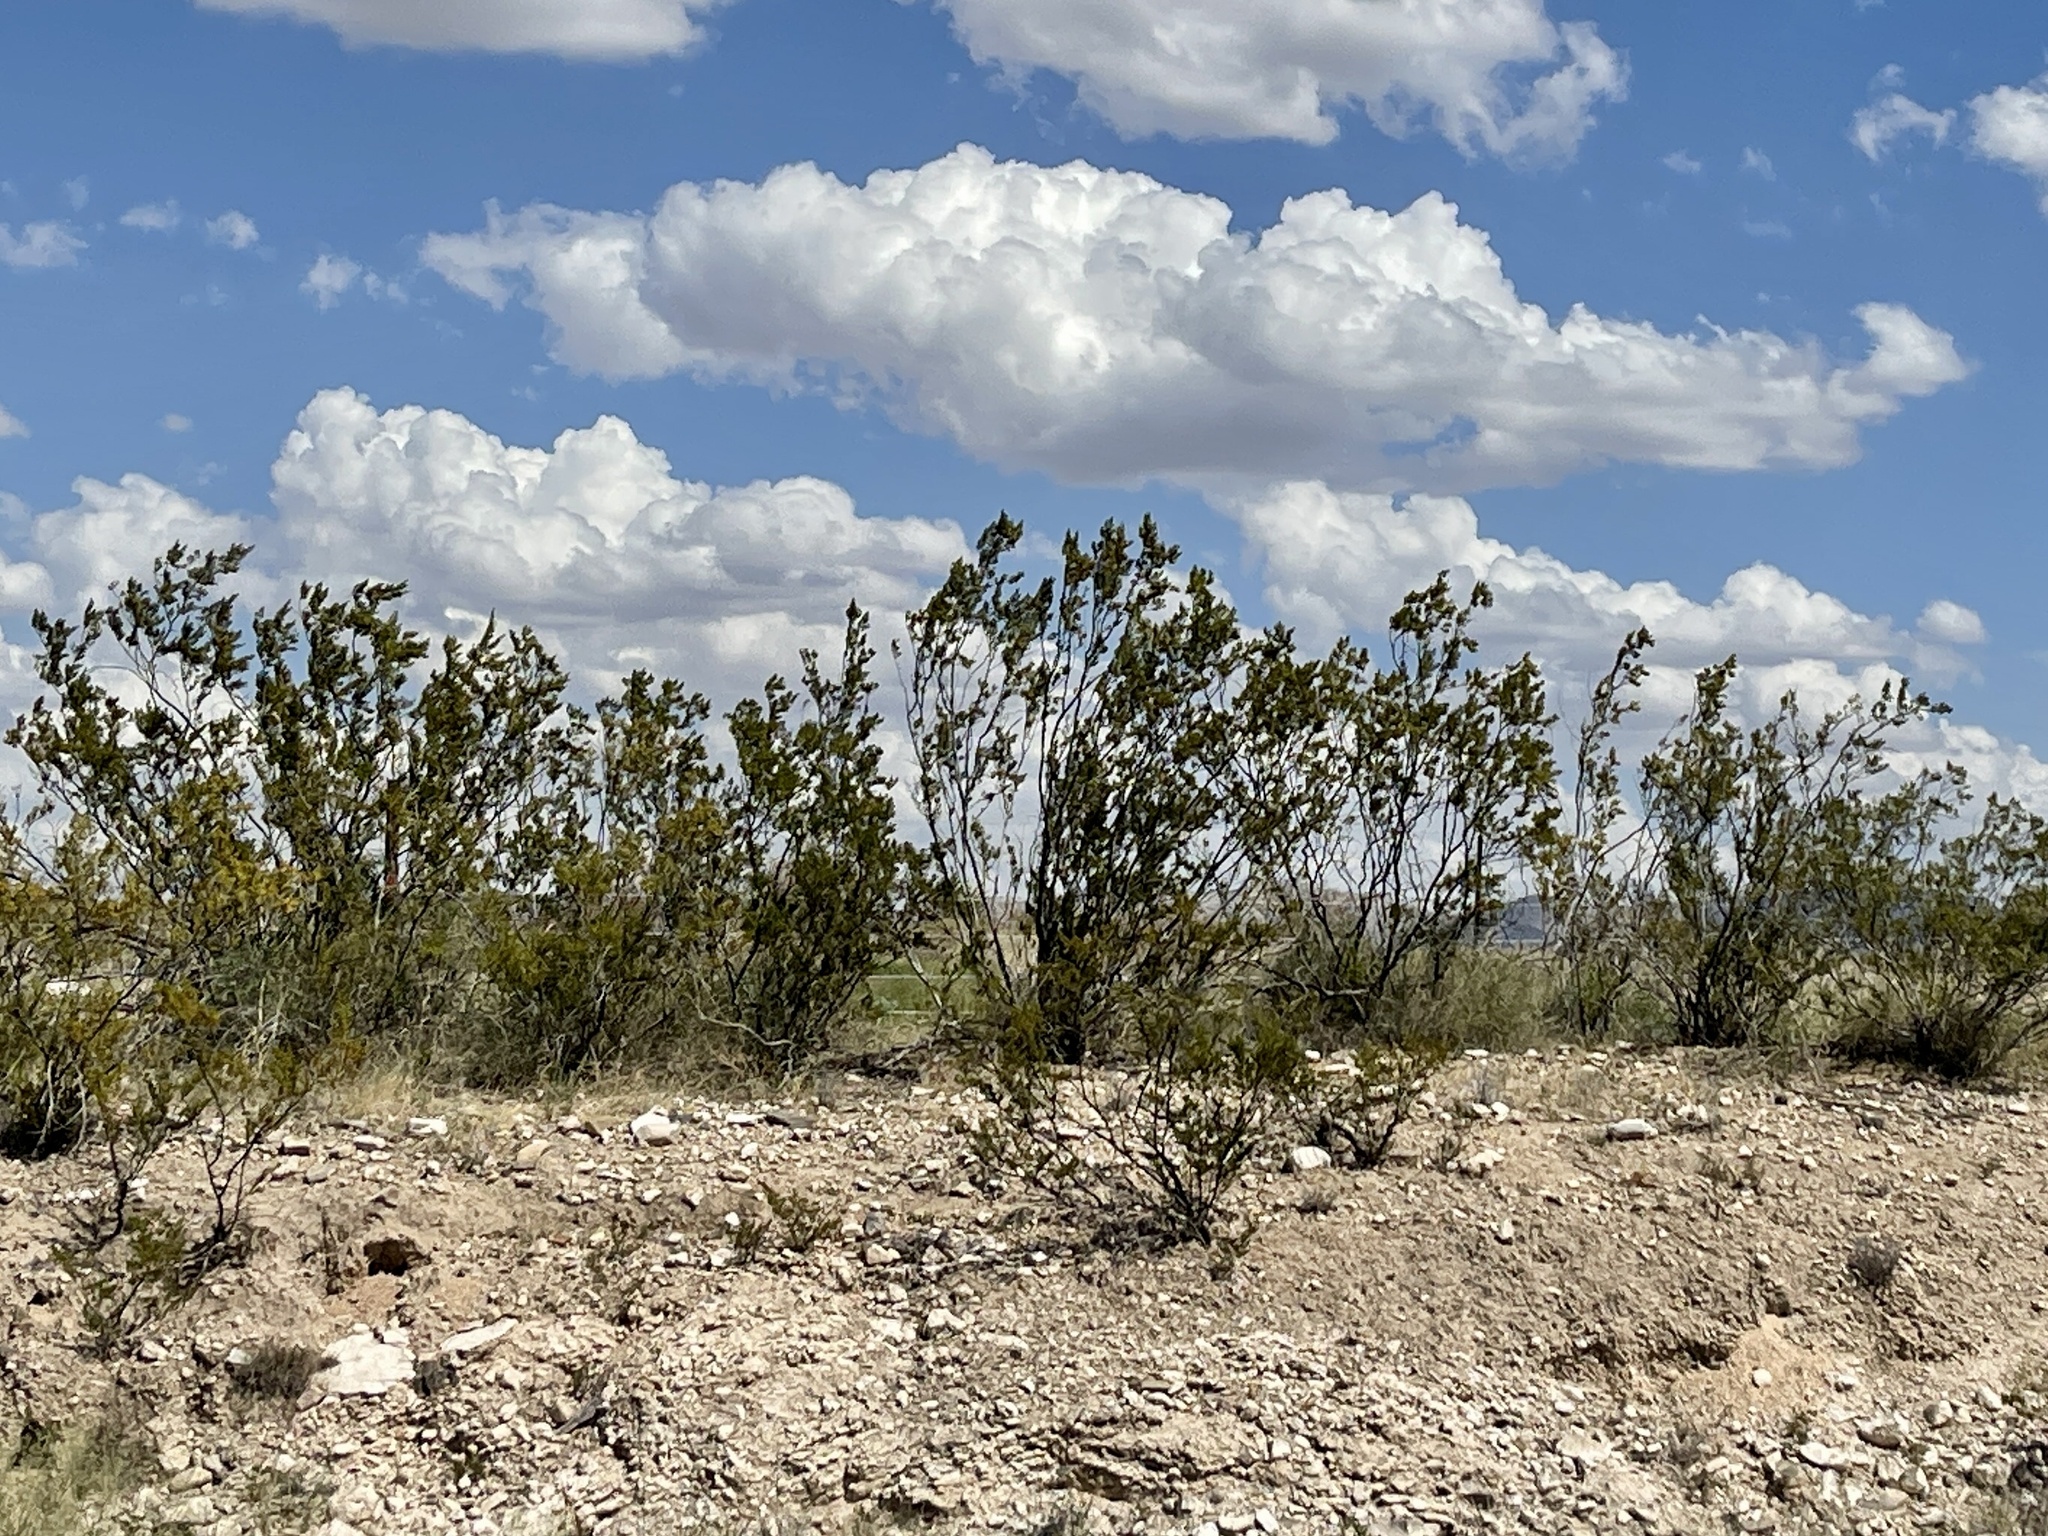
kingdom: Plantae
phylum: Tracheophyta
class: Magnoliopsida
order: Zygophyllales
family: Zygophyllaceae
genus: Larrea
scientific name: Larrea tridentata
